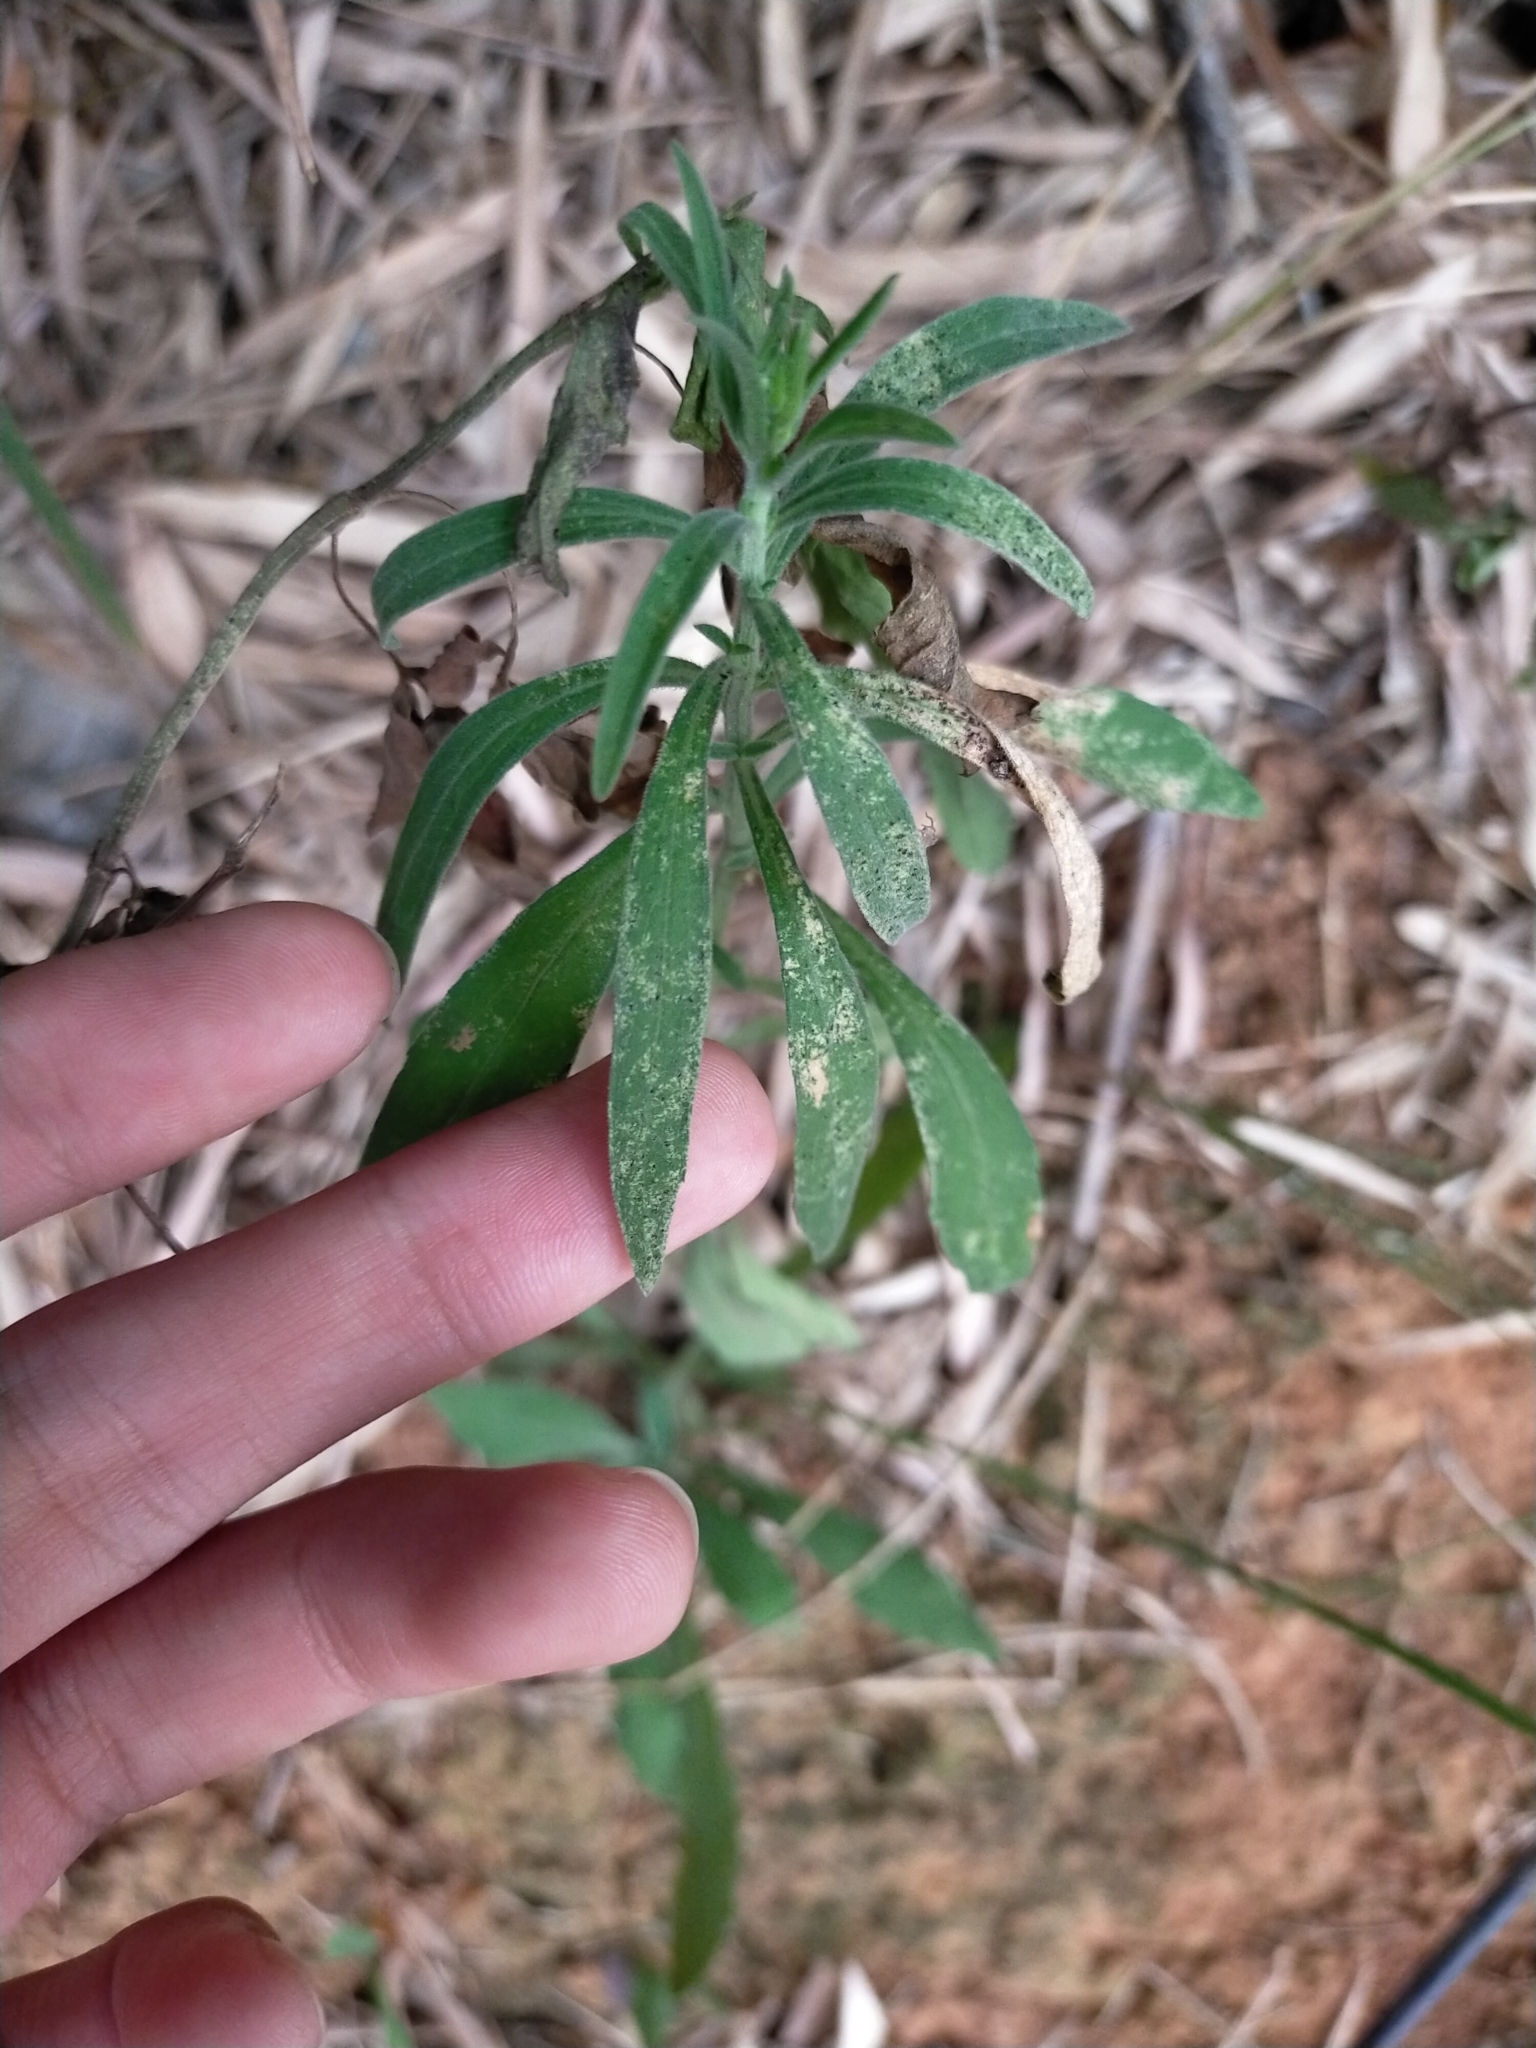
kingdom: Plantae
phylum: Tracheophyta
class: Magnoliopsida
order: Asterales
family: Asteraceae
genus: Erigeron
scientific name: Erigeron sumatrensis
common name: Daisy
